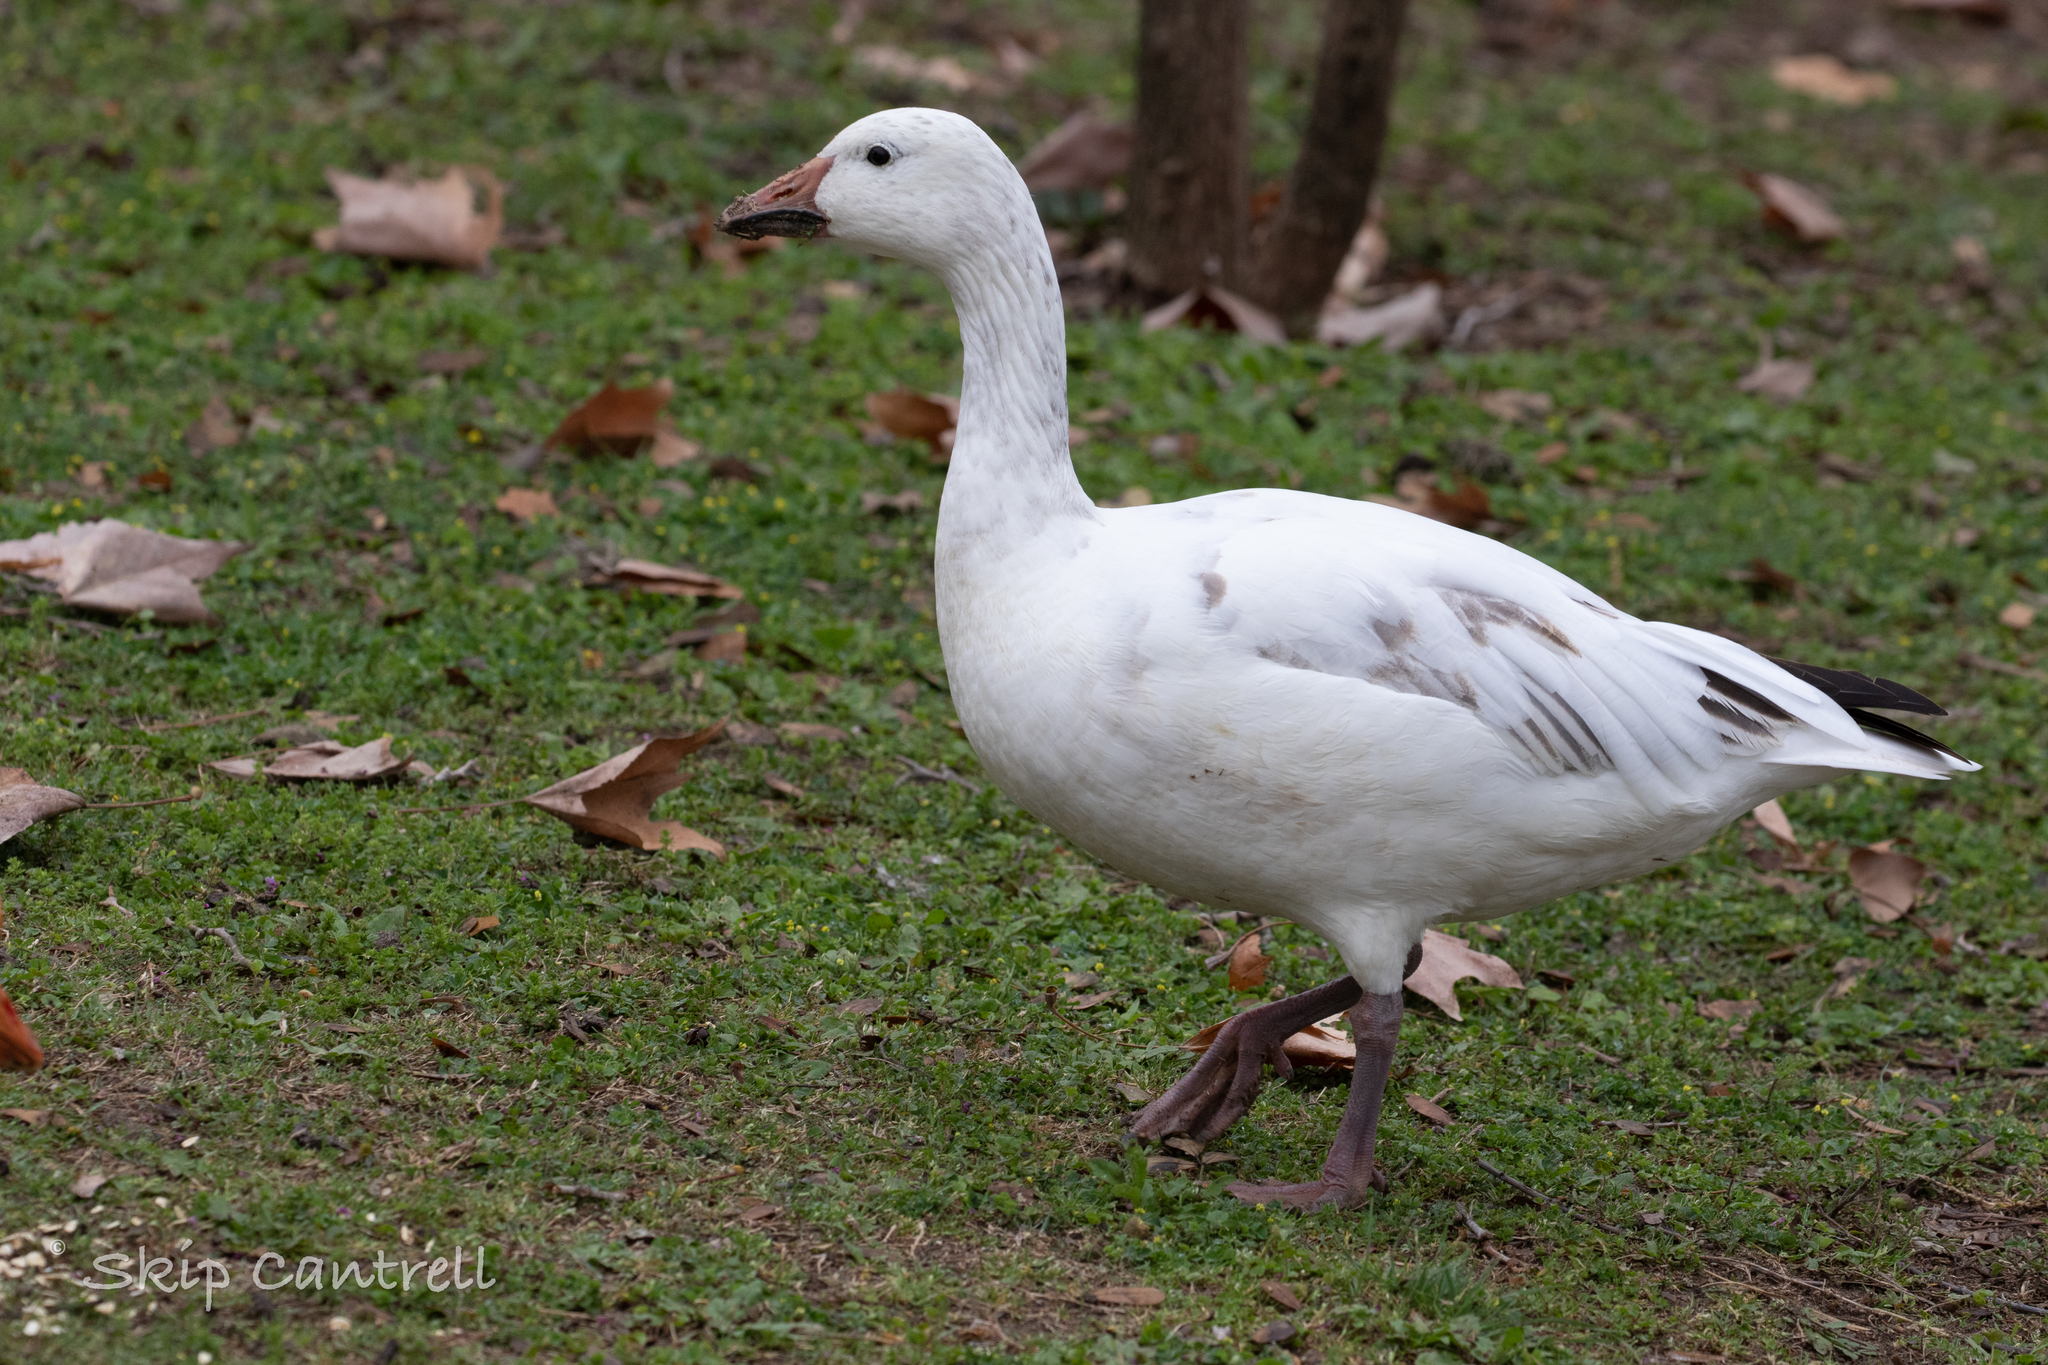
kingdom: Animalia
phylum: Chordata
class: Aves
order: Anseriformes
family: Anatidae
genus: Anser
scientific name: Anser caerulescens
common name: Snow goose
